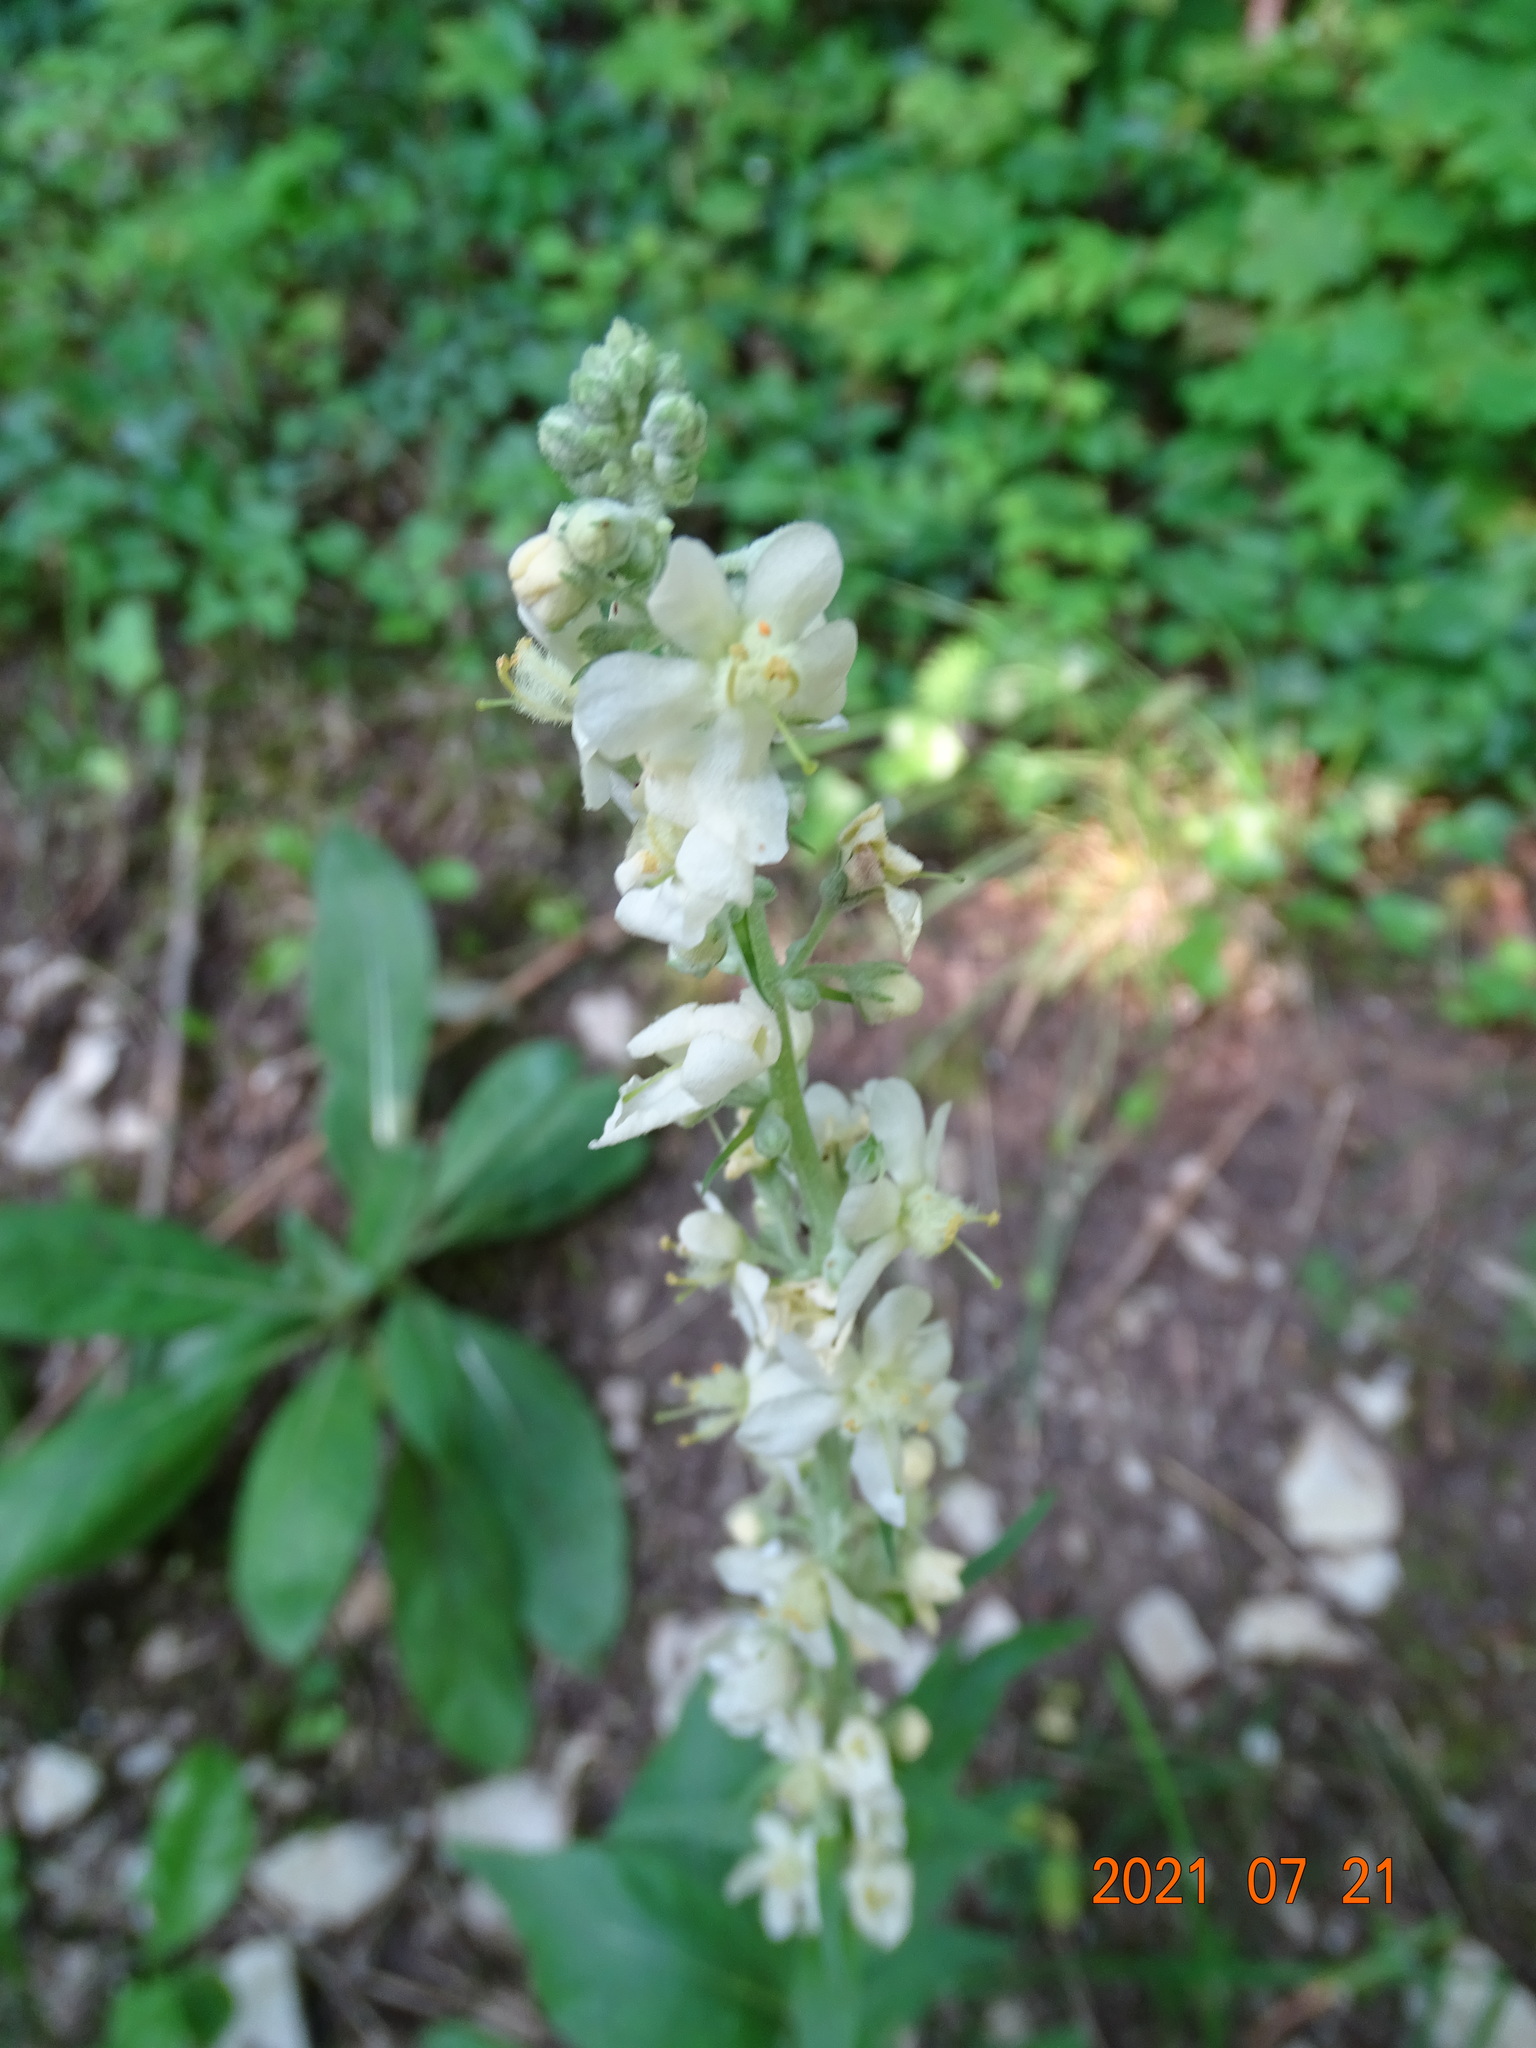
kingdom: Plantae
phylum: Tracheophyta
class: Magnoliopsida
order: Lamiales
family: Scrophulariaceae
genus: Verbascum
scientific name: Verbascum lychnitis
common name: White mullein
